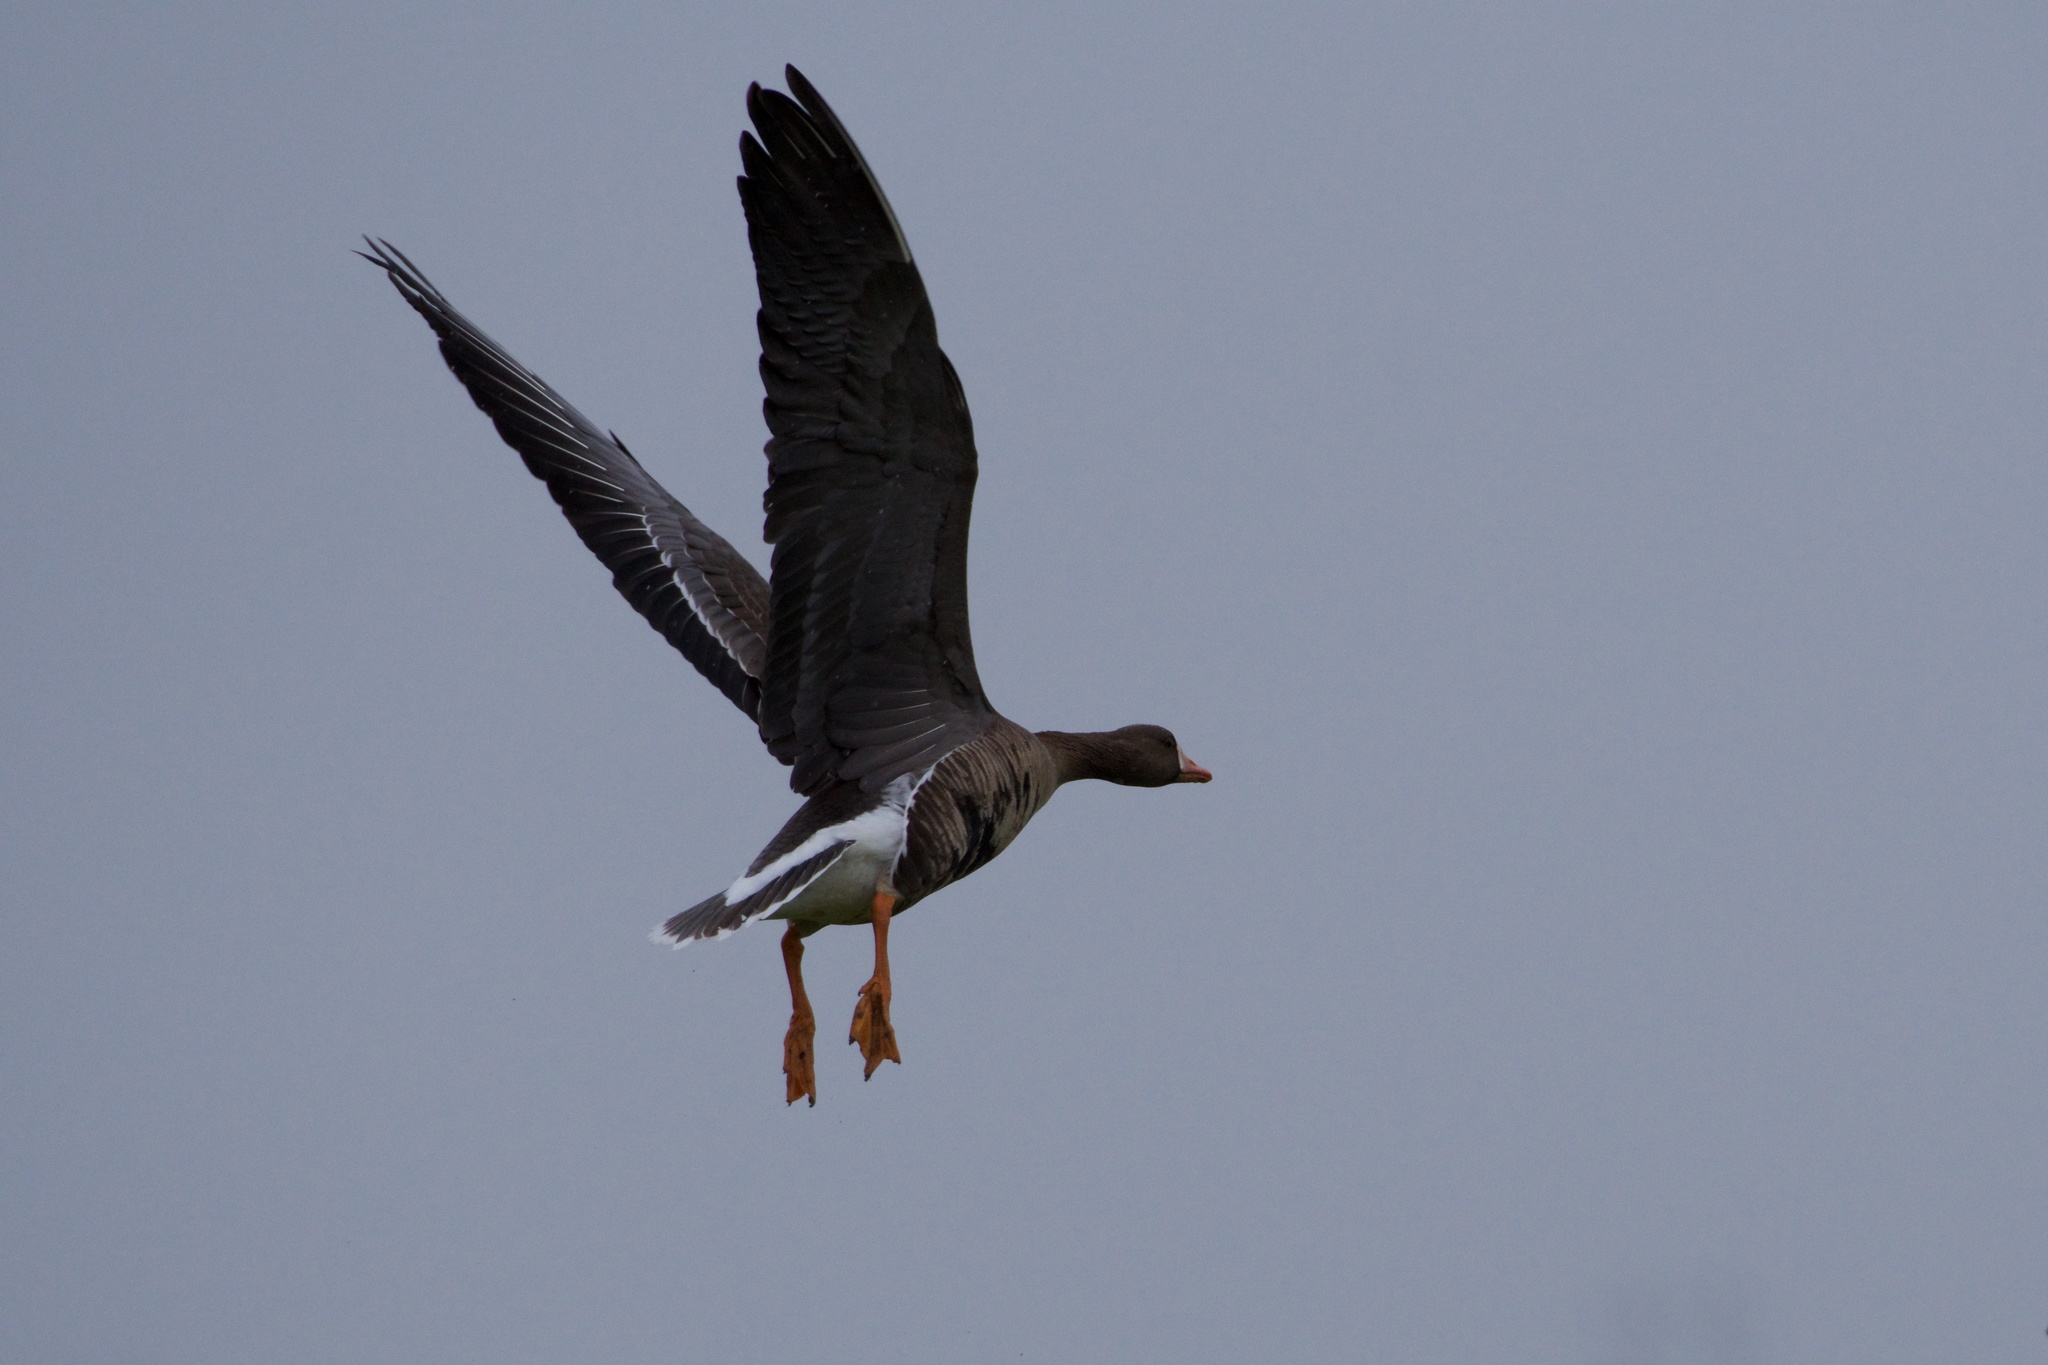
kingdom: Animalia
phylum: Chordata
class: Aves
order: Anseriformes
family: Anatidae
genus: Anser
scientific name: Anser albifrons
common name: Greater white-fronted goose
